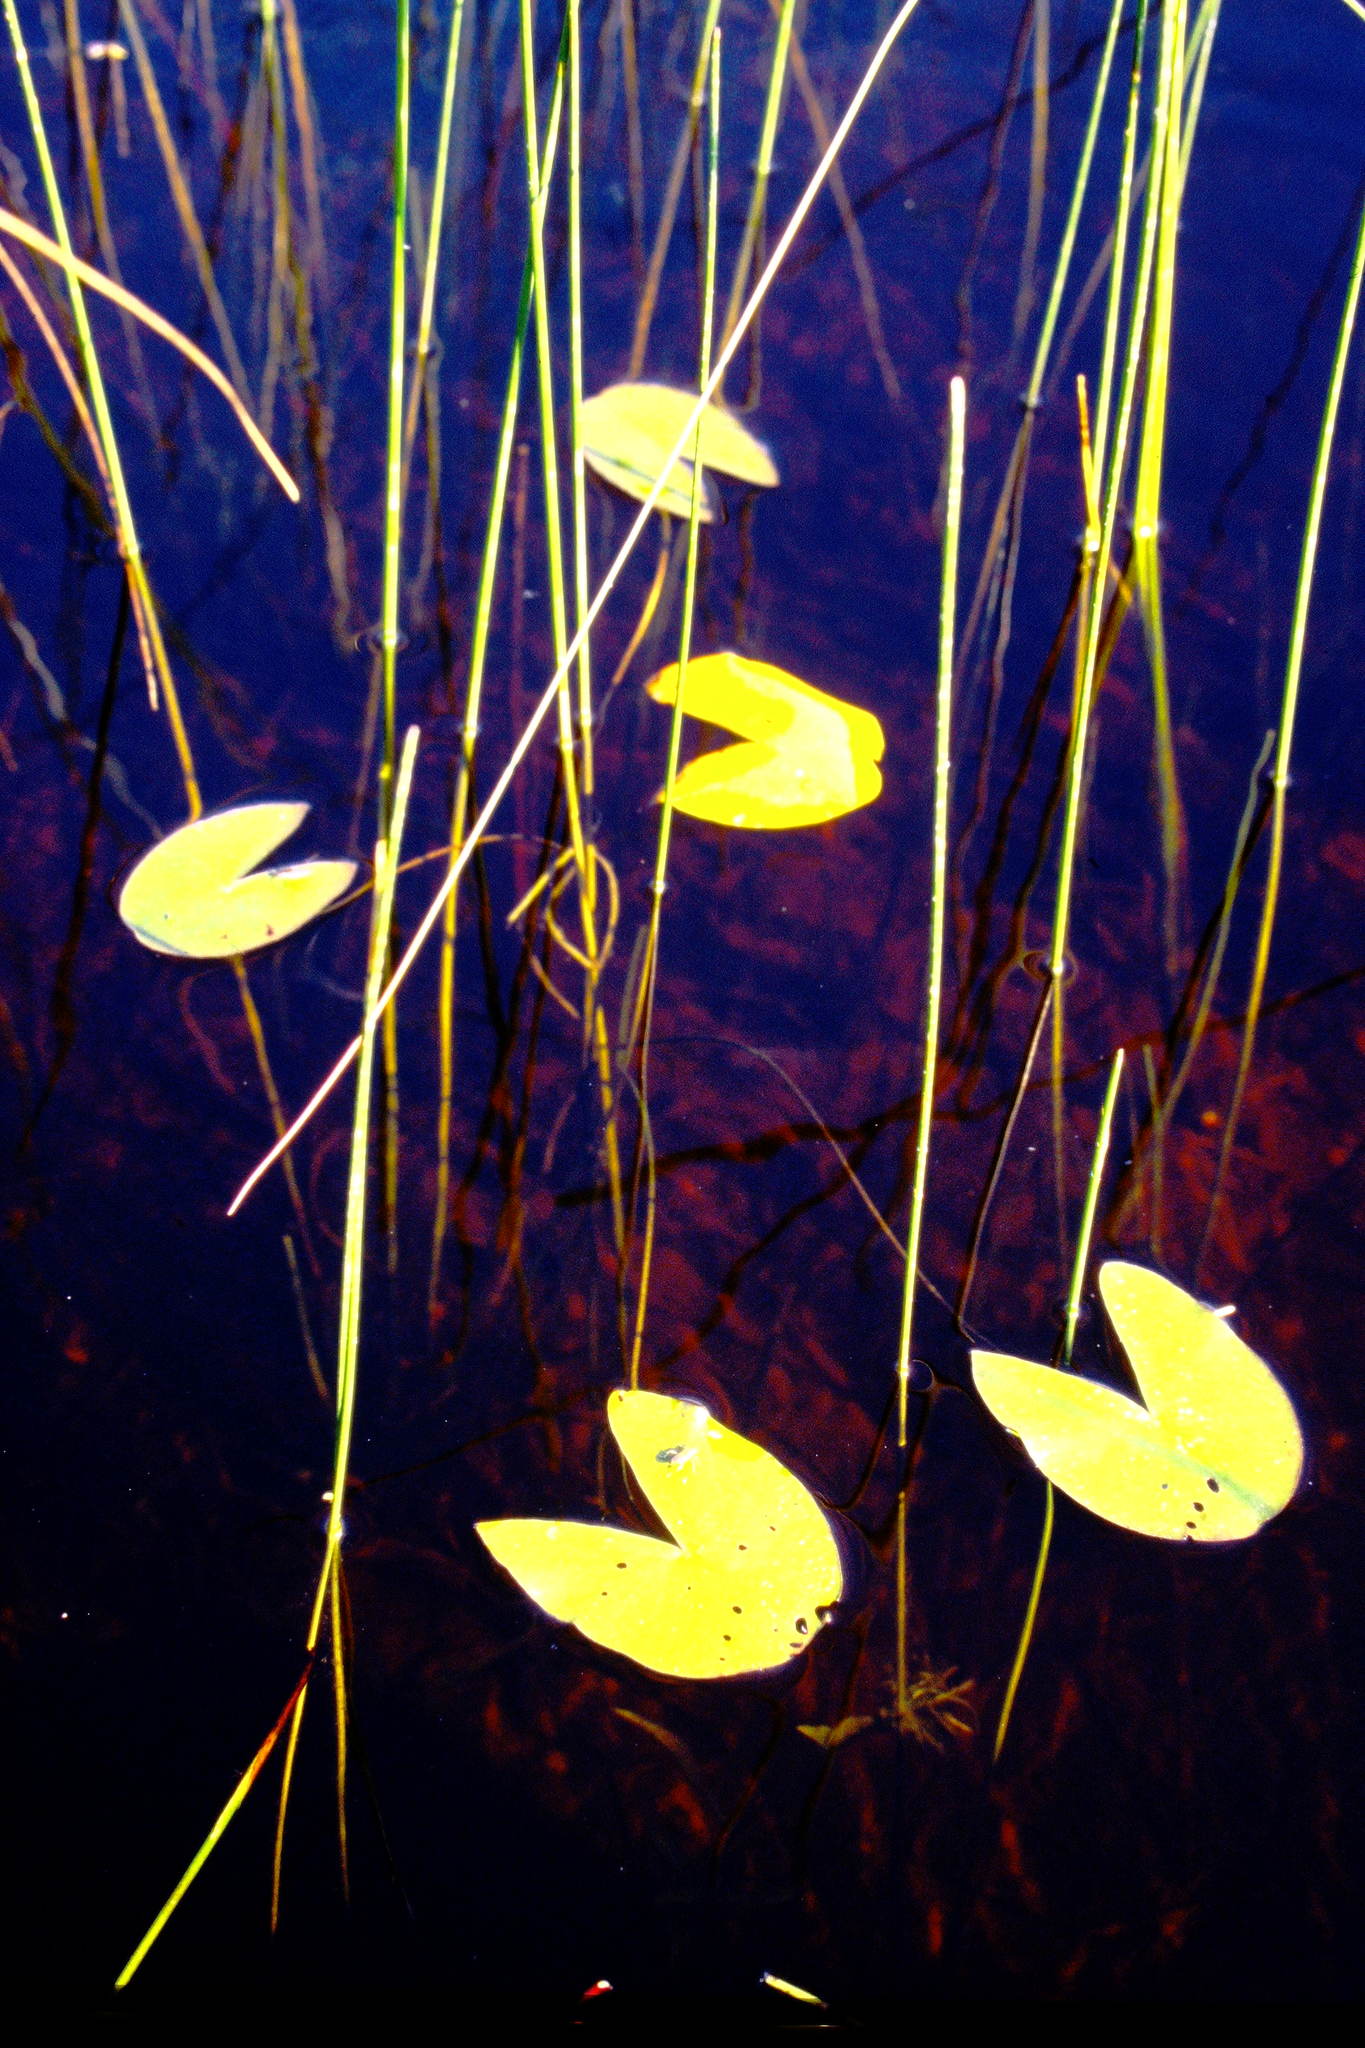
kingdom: Plantae
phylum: Tracheophyta
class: Magnoliopsida
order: Nymphaeales
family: Nymphaeaceae
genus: Nymphaea
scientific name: Nymphaea leibergii
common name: Dwarf water-lily
